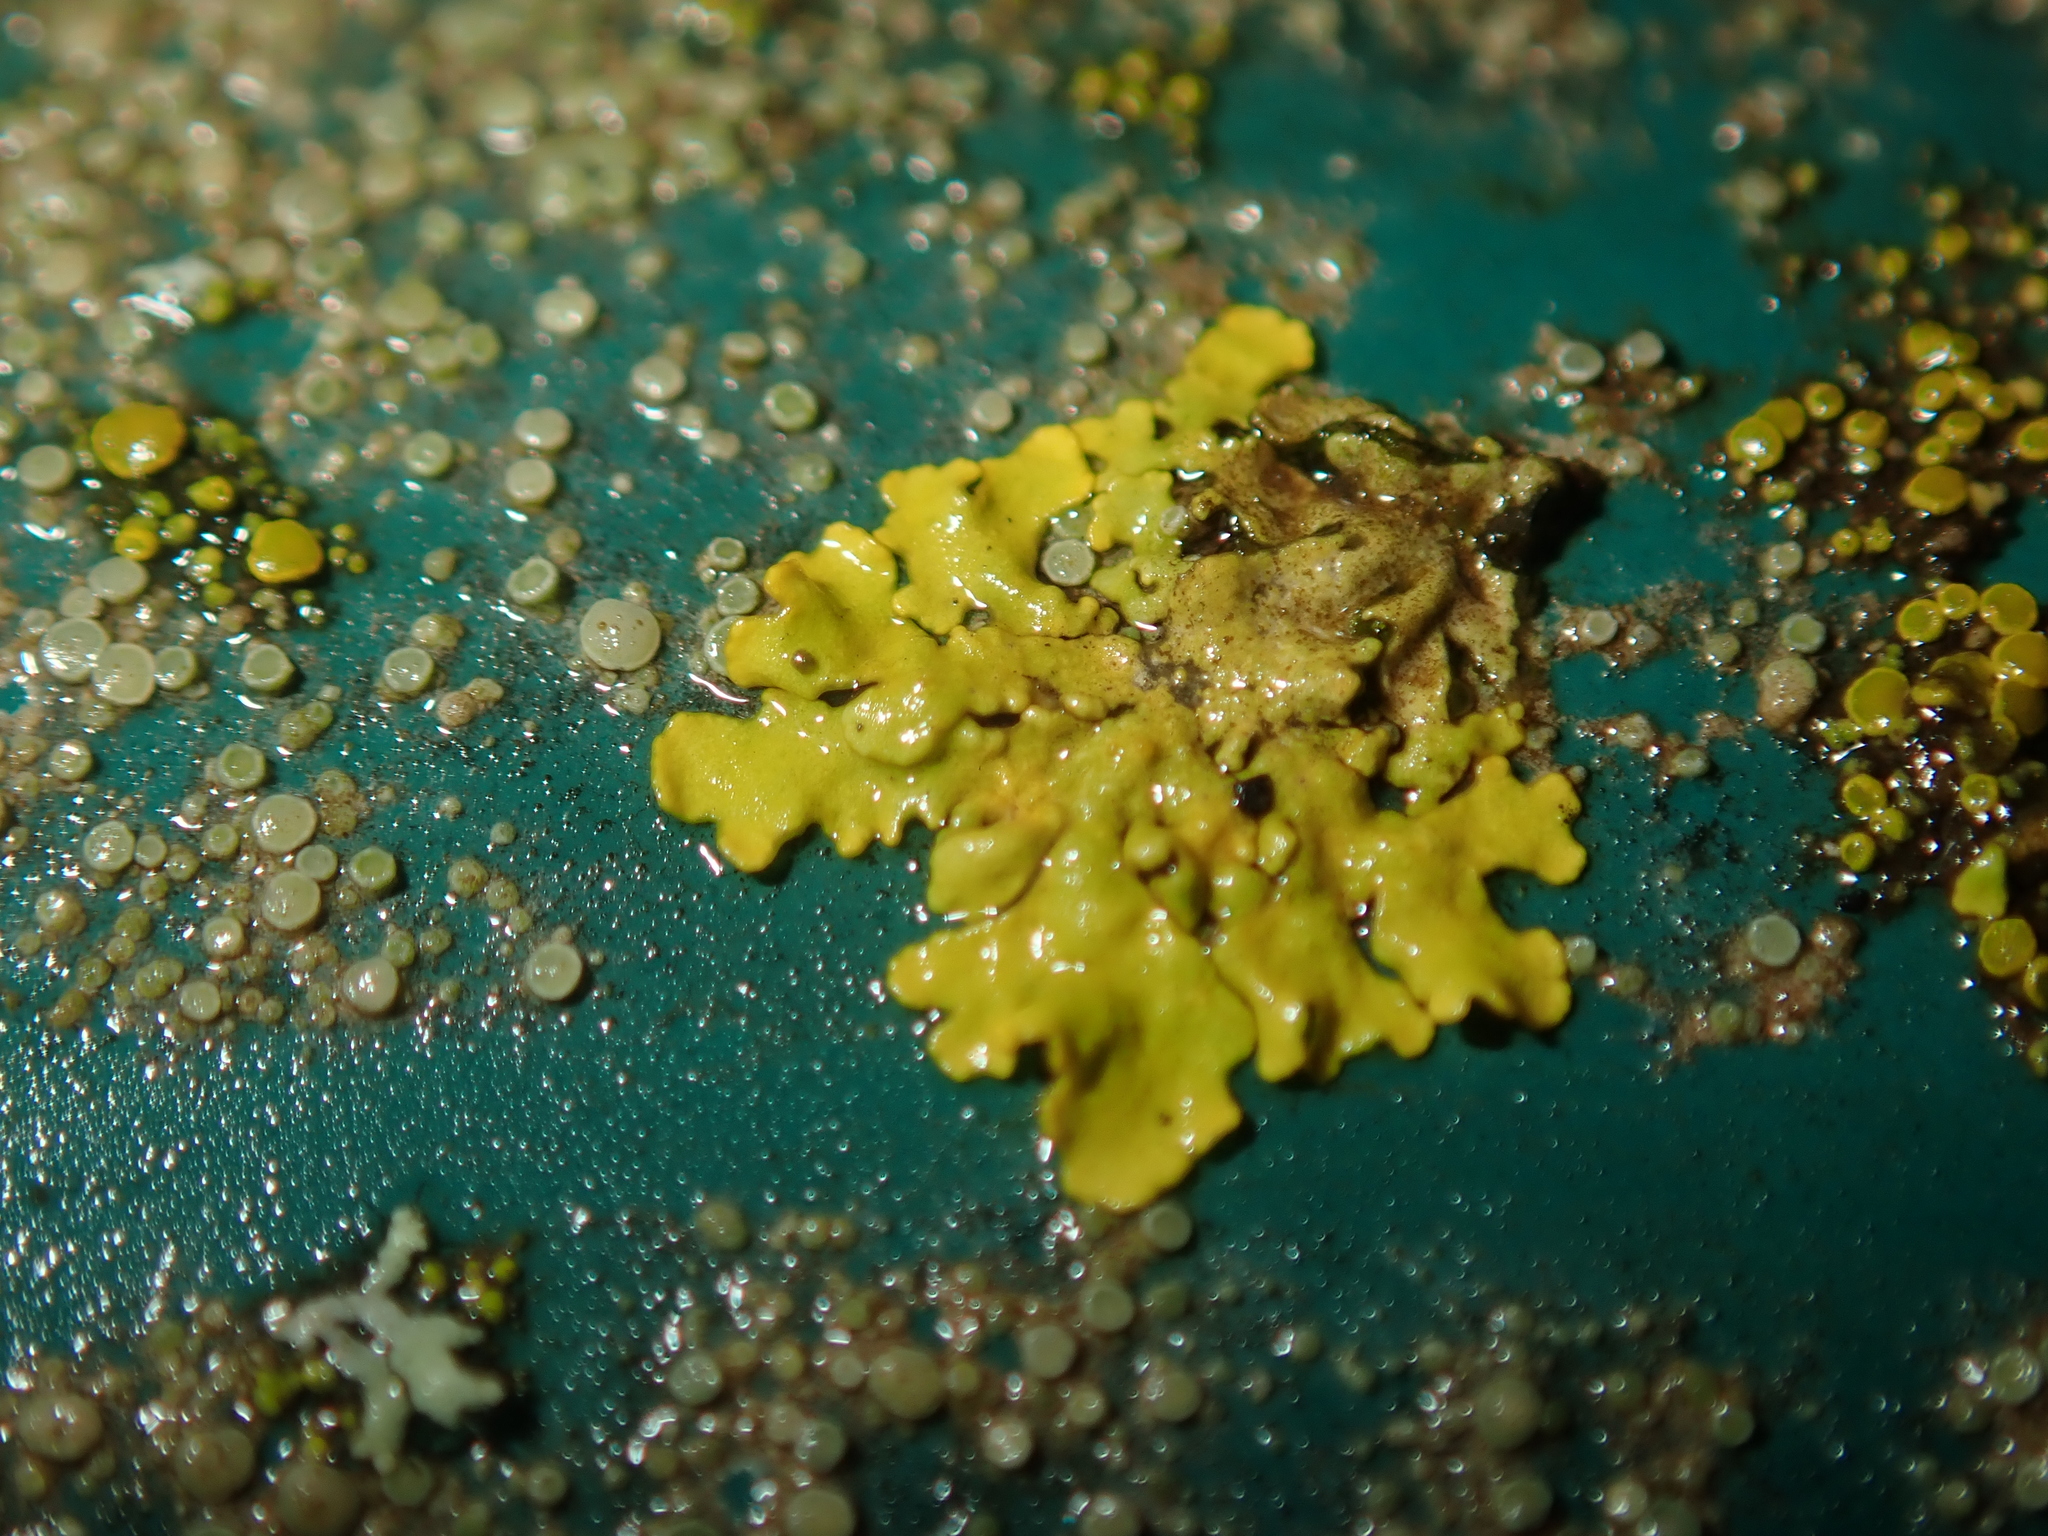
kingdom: Fungi
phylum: Ascomycota
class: Lecanoromycetes
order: Teloschistales
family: Teloschistaceae
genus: Xanthoria
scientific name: Xanthoria parietina
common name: Common orange lichen
